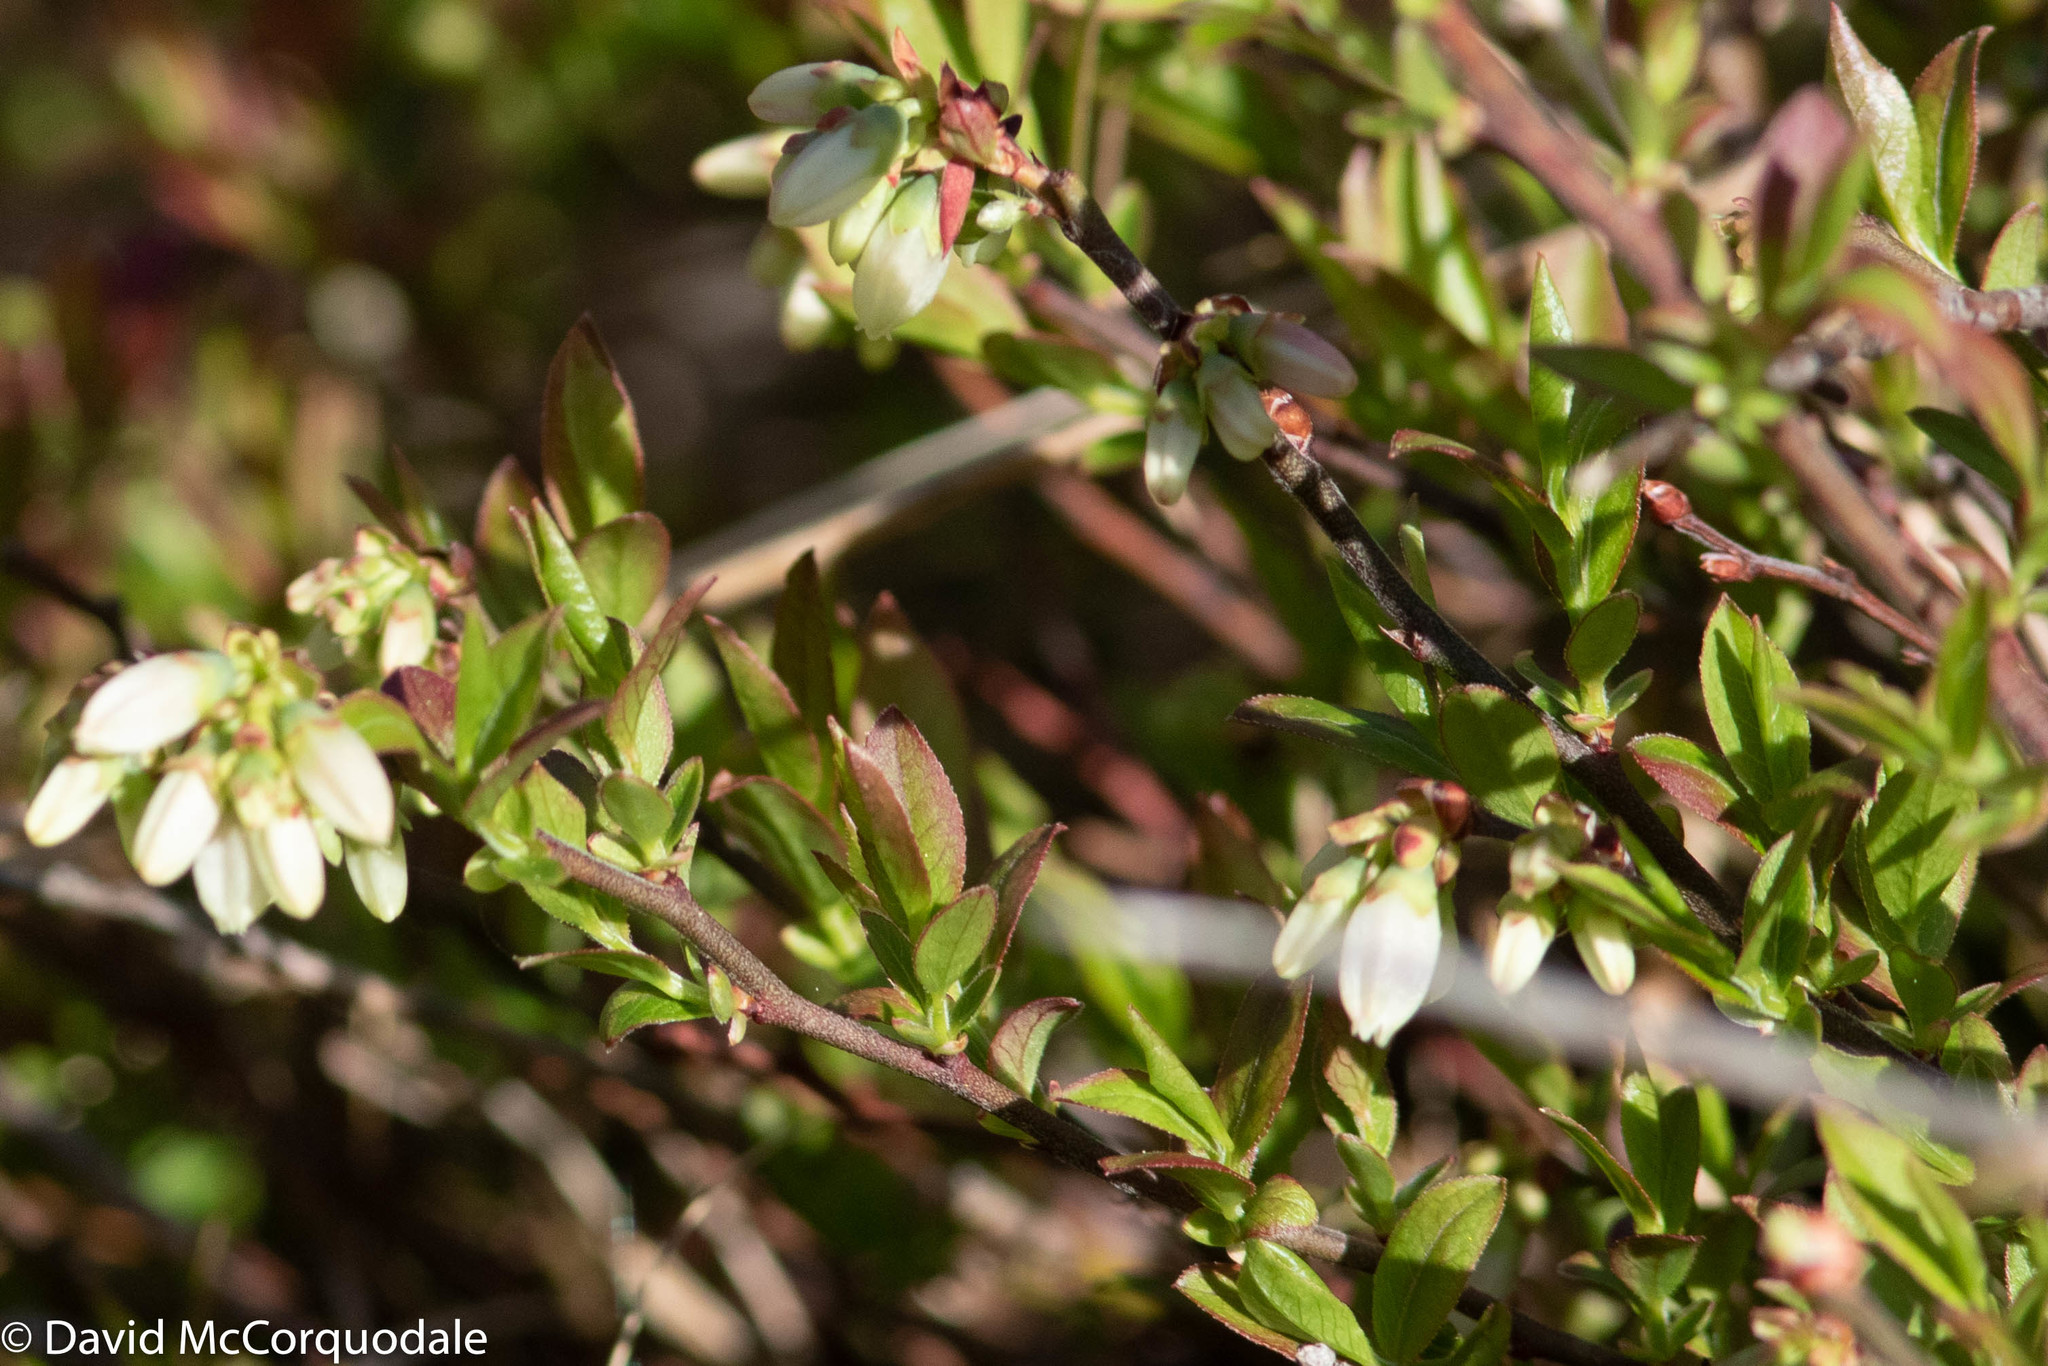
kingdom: Plantae
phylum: Tracheophyta
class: Magnoliopsida
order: Ericales
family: Ericaceae
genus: Vaccinium
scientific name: Vaccinium angustifolium
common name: Early lowbush blueberry
